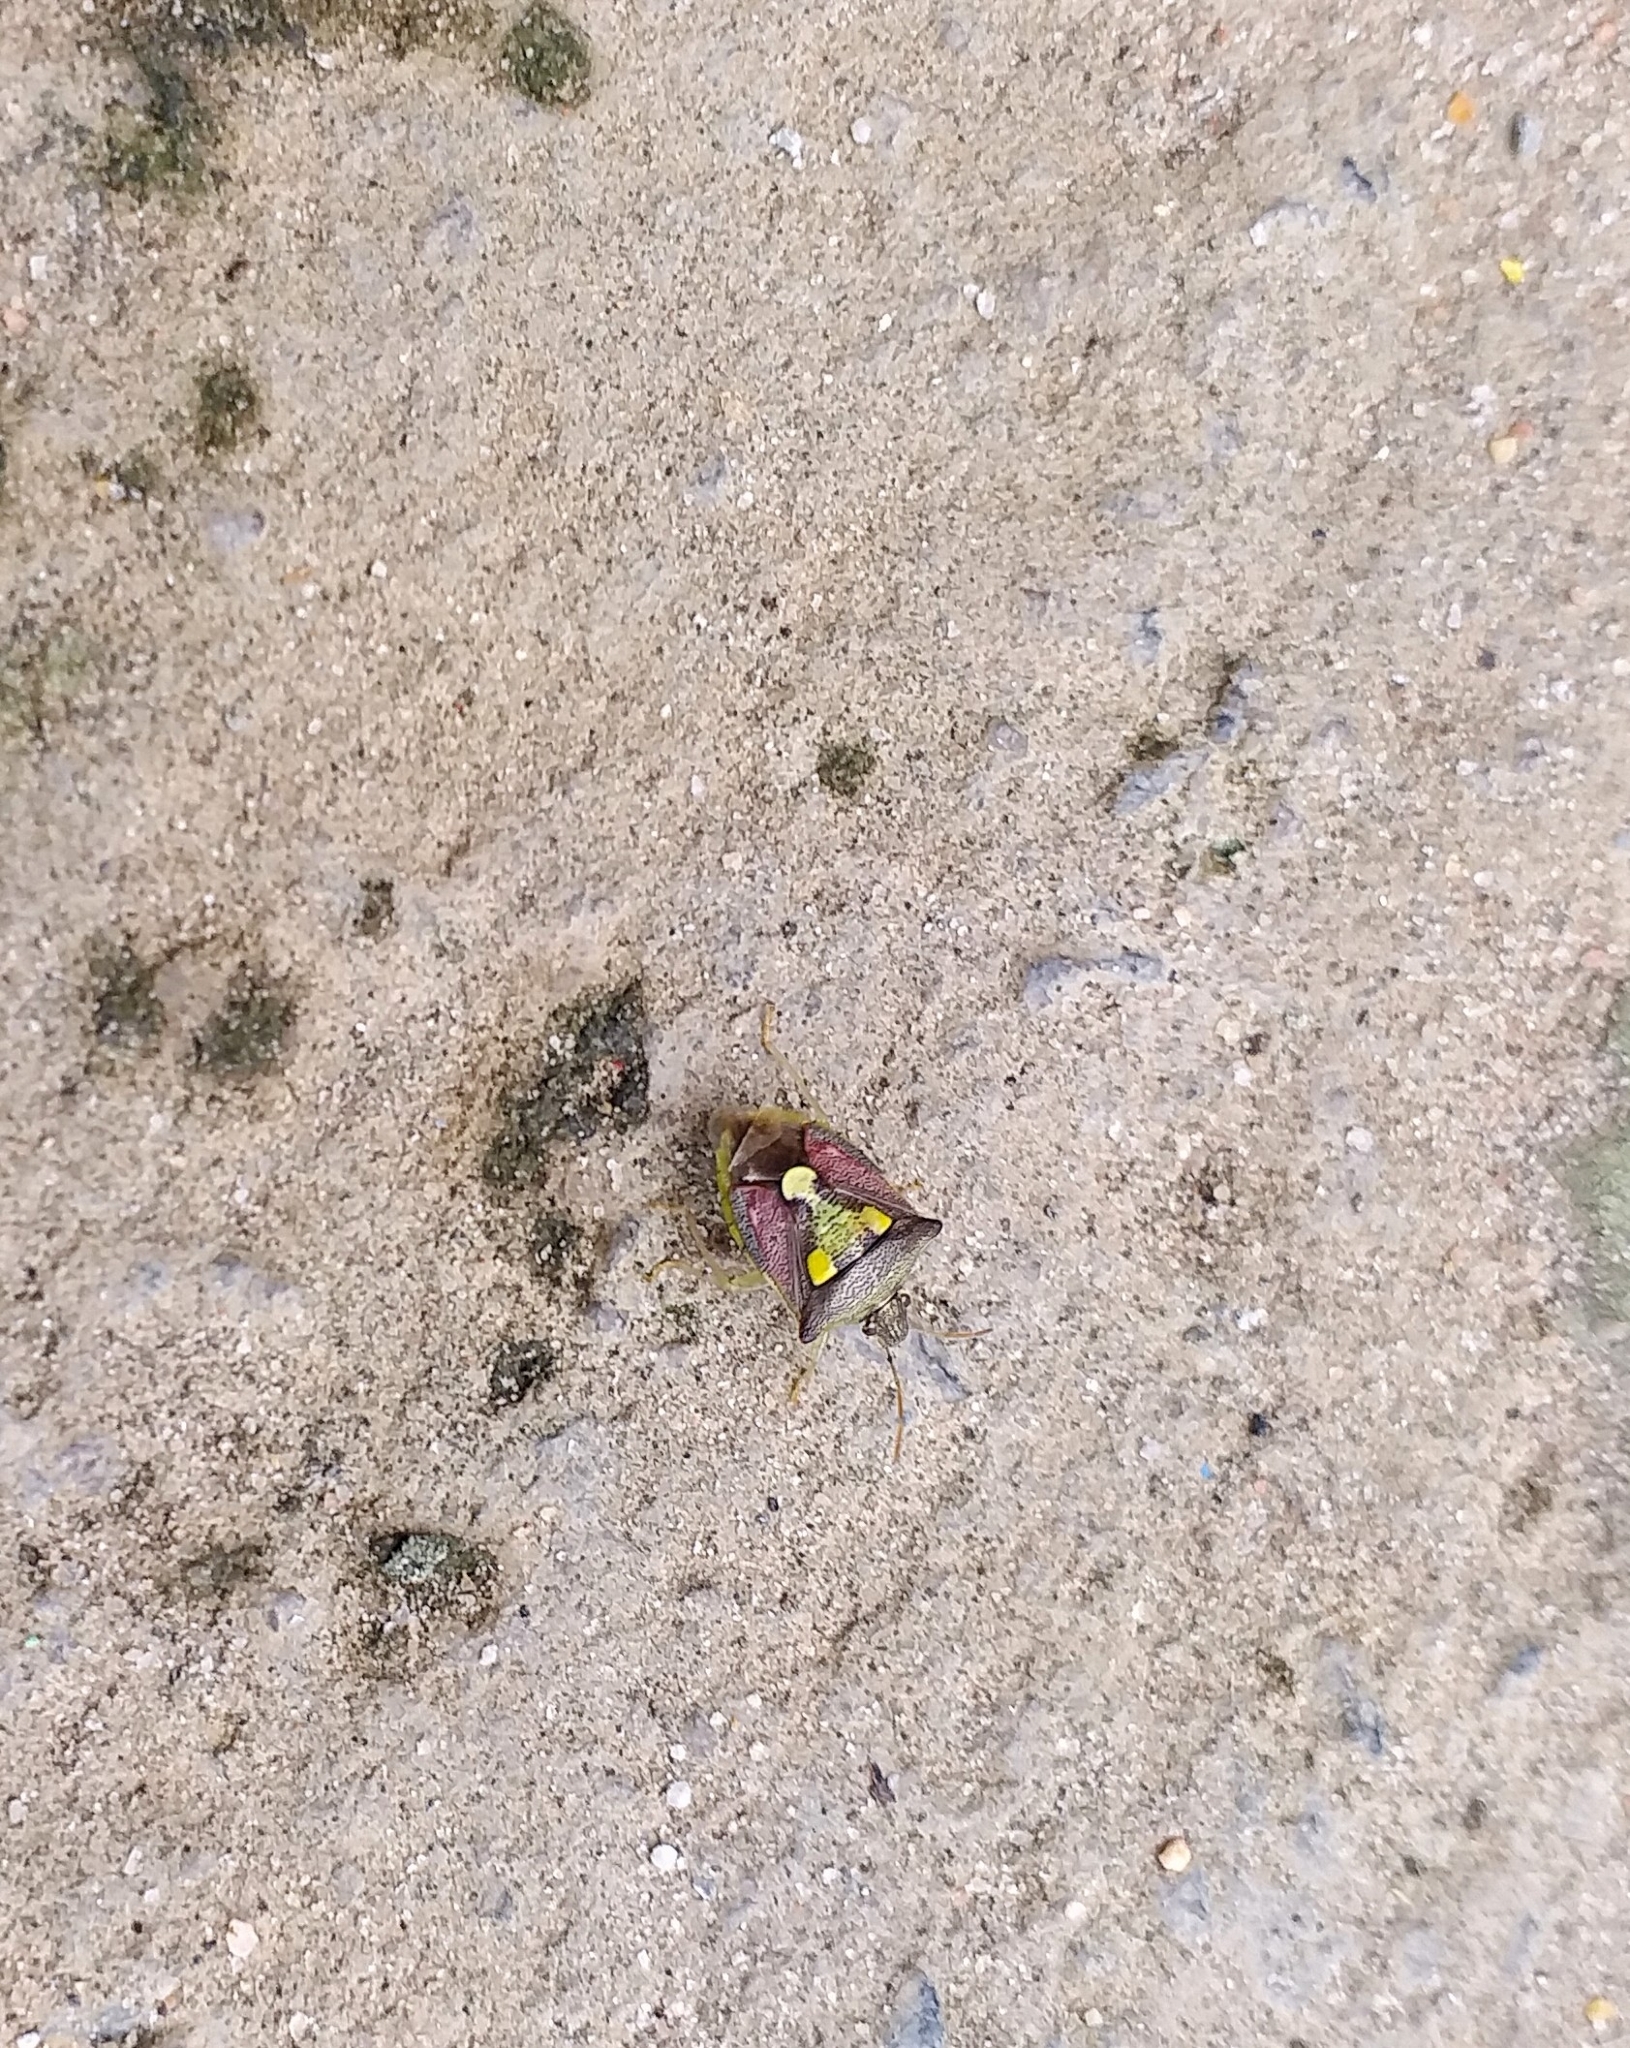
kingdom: Animalia
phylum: Arthropoda
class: Insecta
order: Hemiptera
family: Pentatomidae
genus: Carbula
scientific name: Carbula
